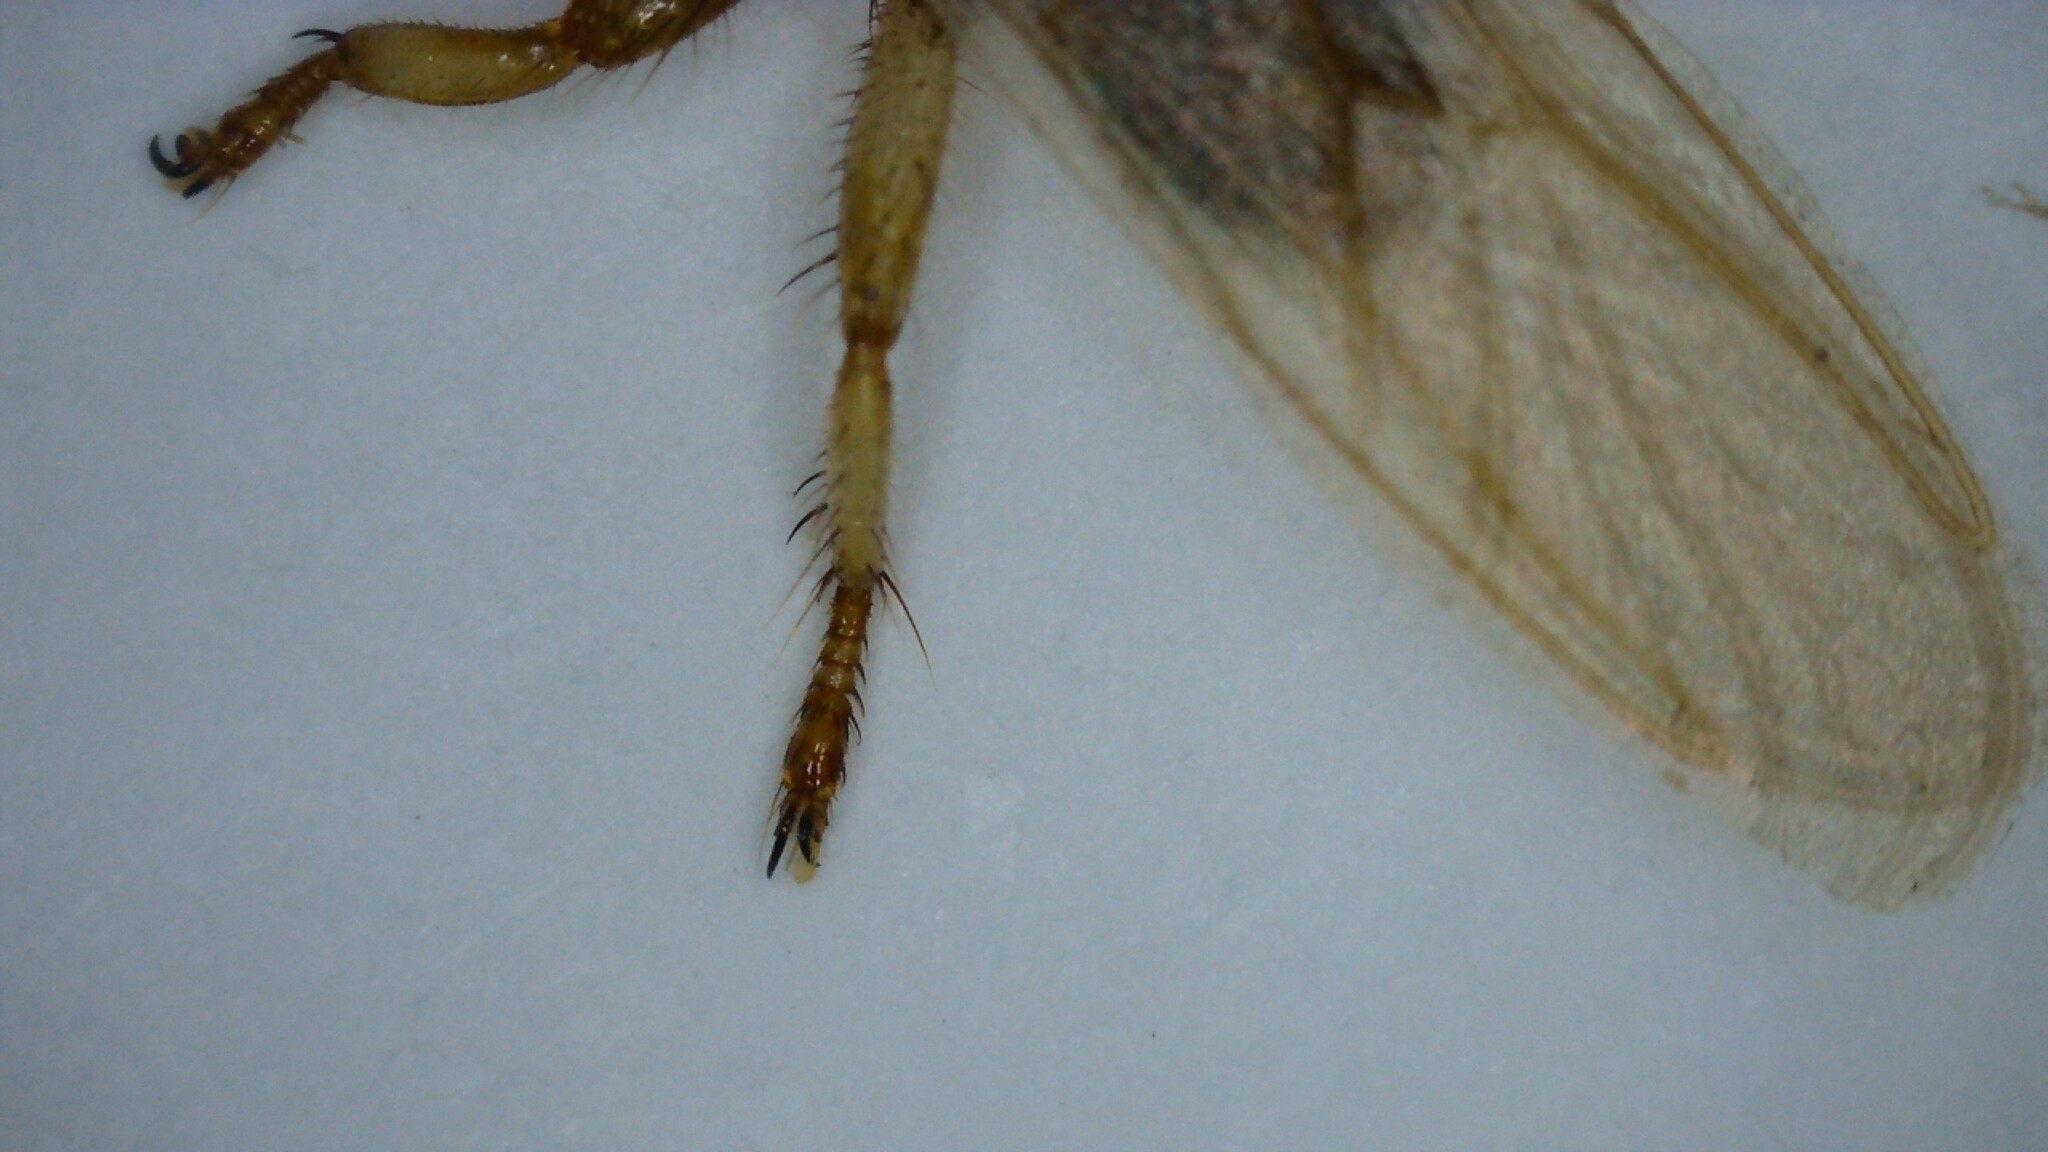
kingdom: Animalia
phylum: Arthropoda
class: Insecta
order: Diptera
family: Hippoboscidae
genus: Lipoptena
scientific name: Lipoptena cervi
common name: Deer ked
